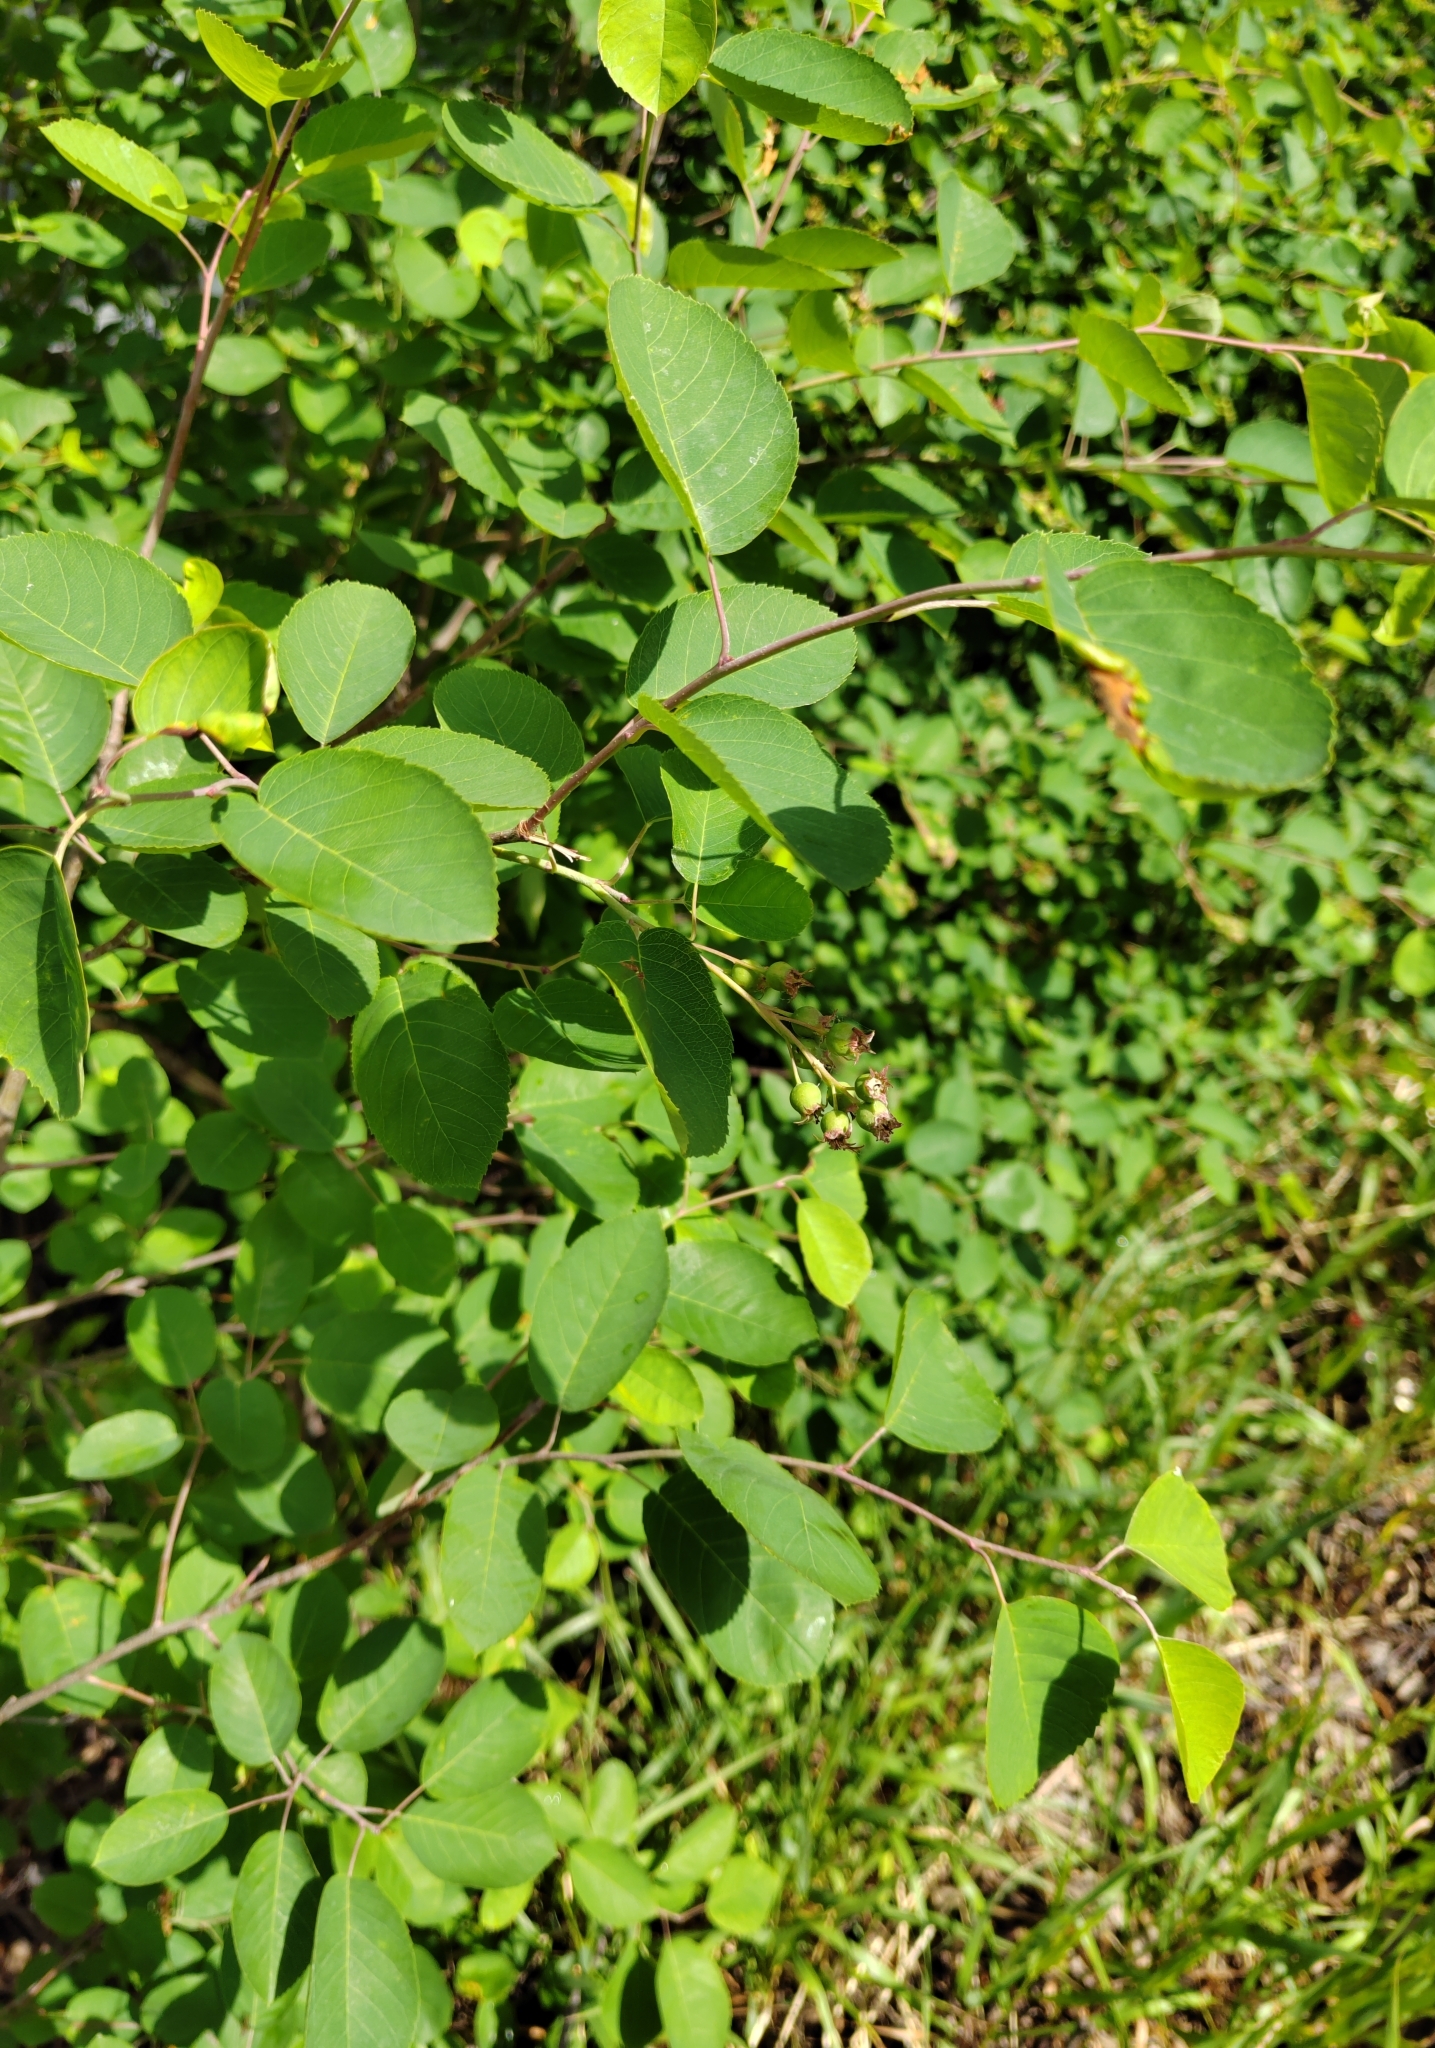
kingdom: Plantae
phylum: Tracheophyta
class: Magnoliopsida
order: Rosales
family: Rosaceae
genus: Amelanchier
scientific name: Amelanchier
